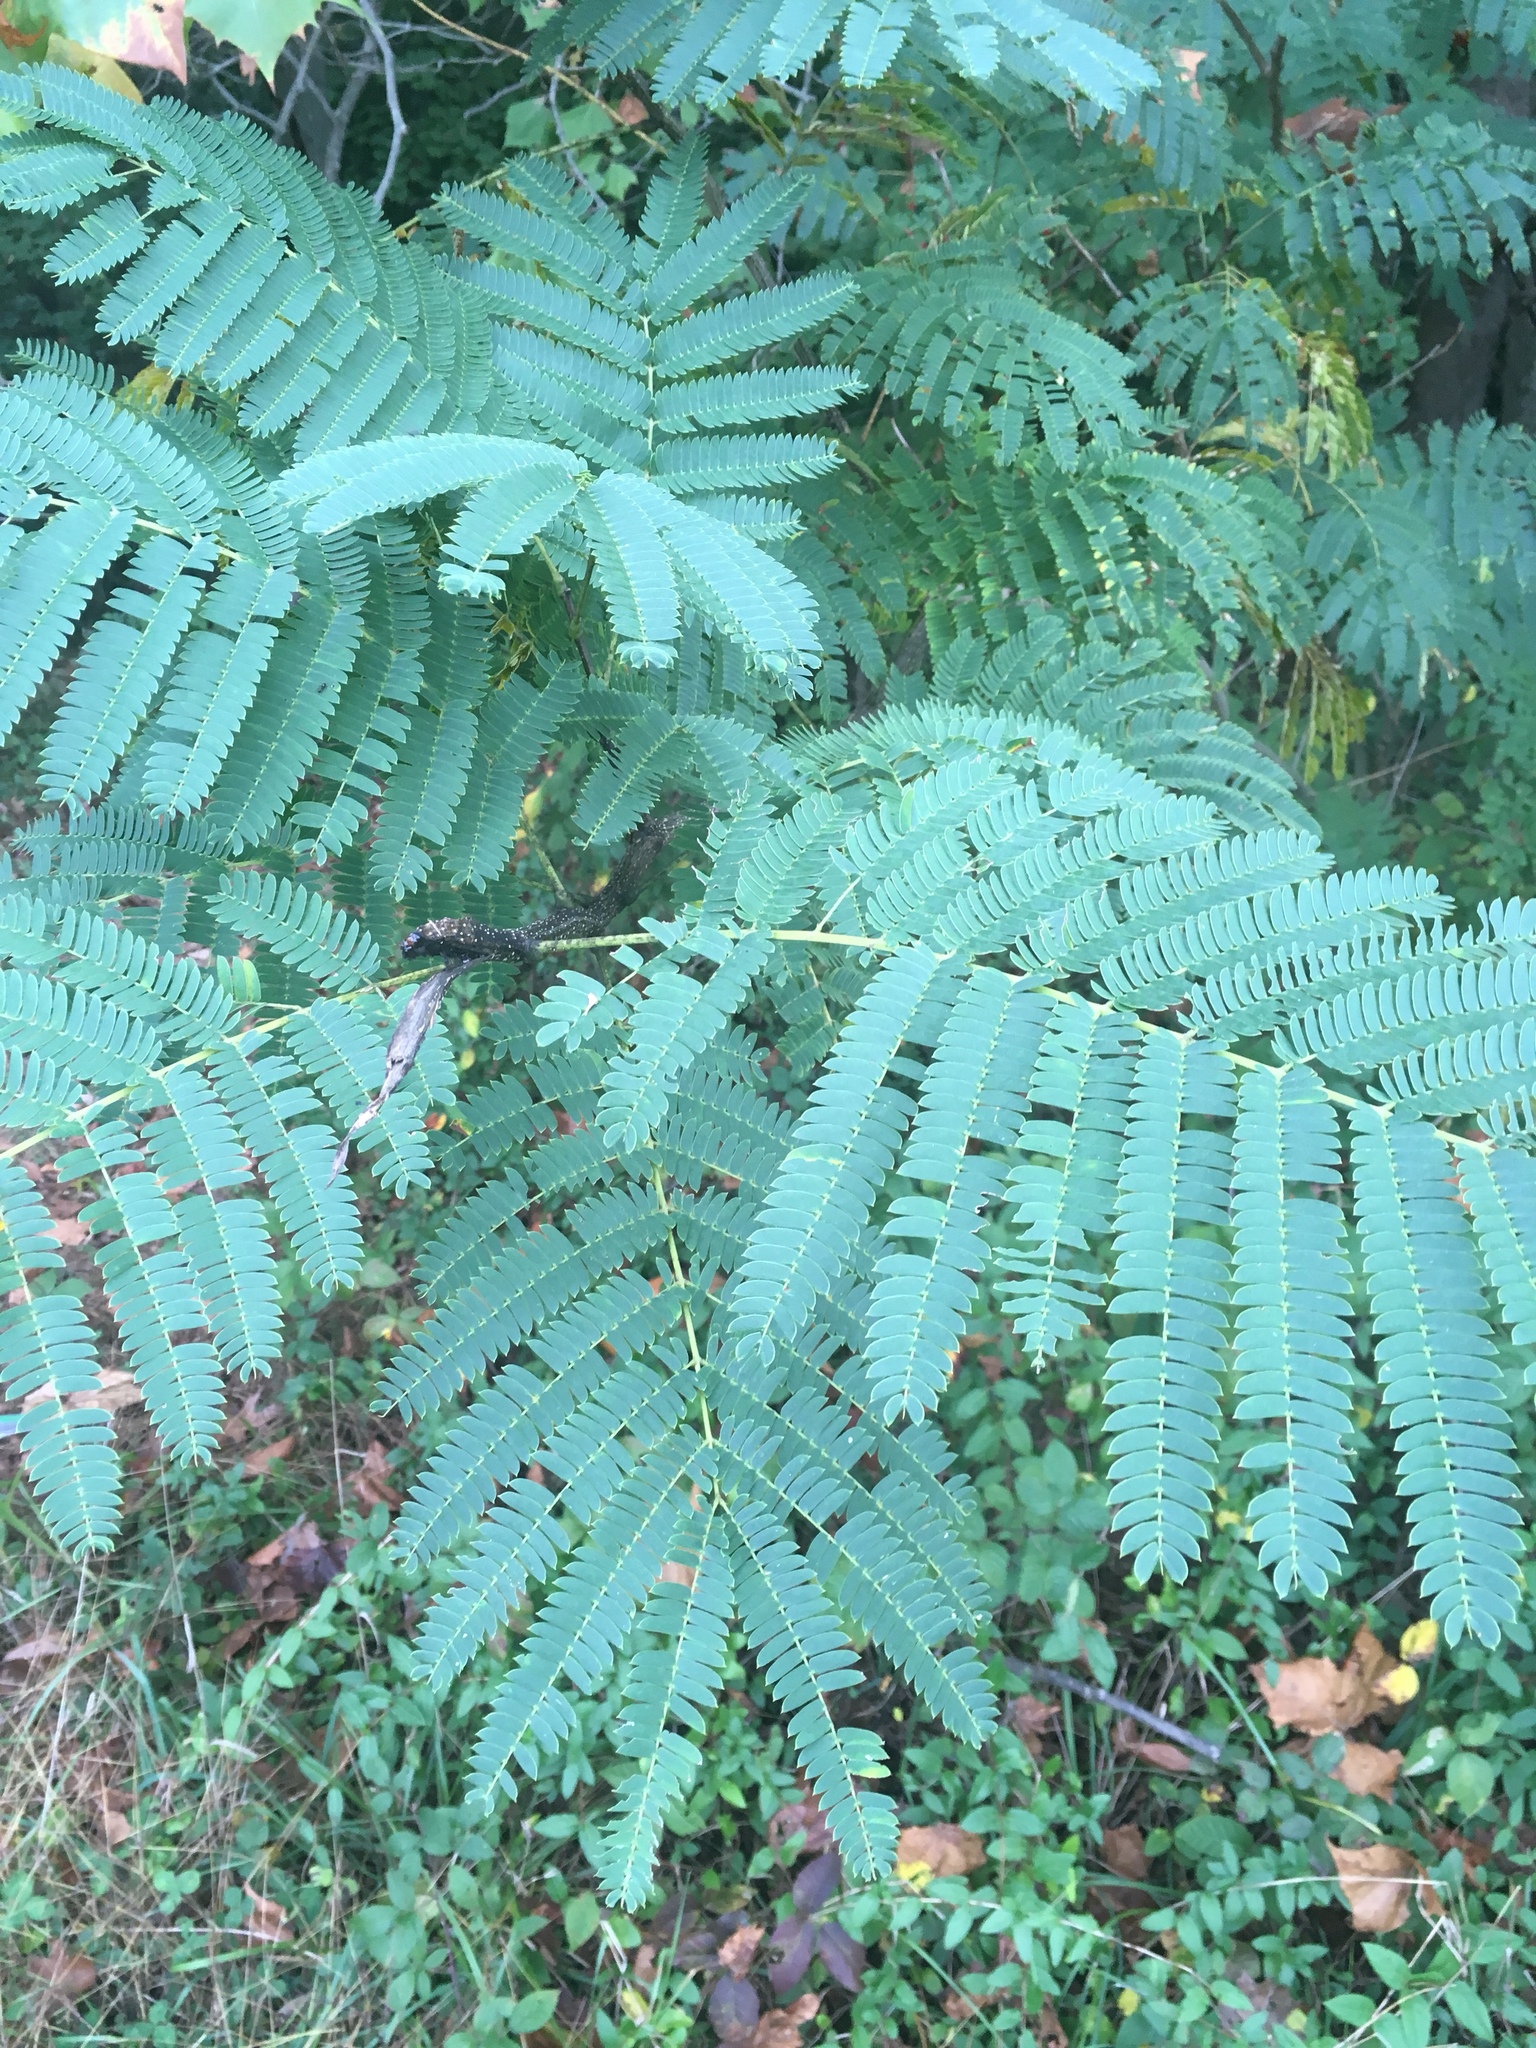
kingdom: Plantae
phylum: Tracheophyta
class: Magnoliopsida
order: Fabales
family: Fabaceae
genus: Albizia
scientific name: Albizia julibrissin
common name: Silktree
